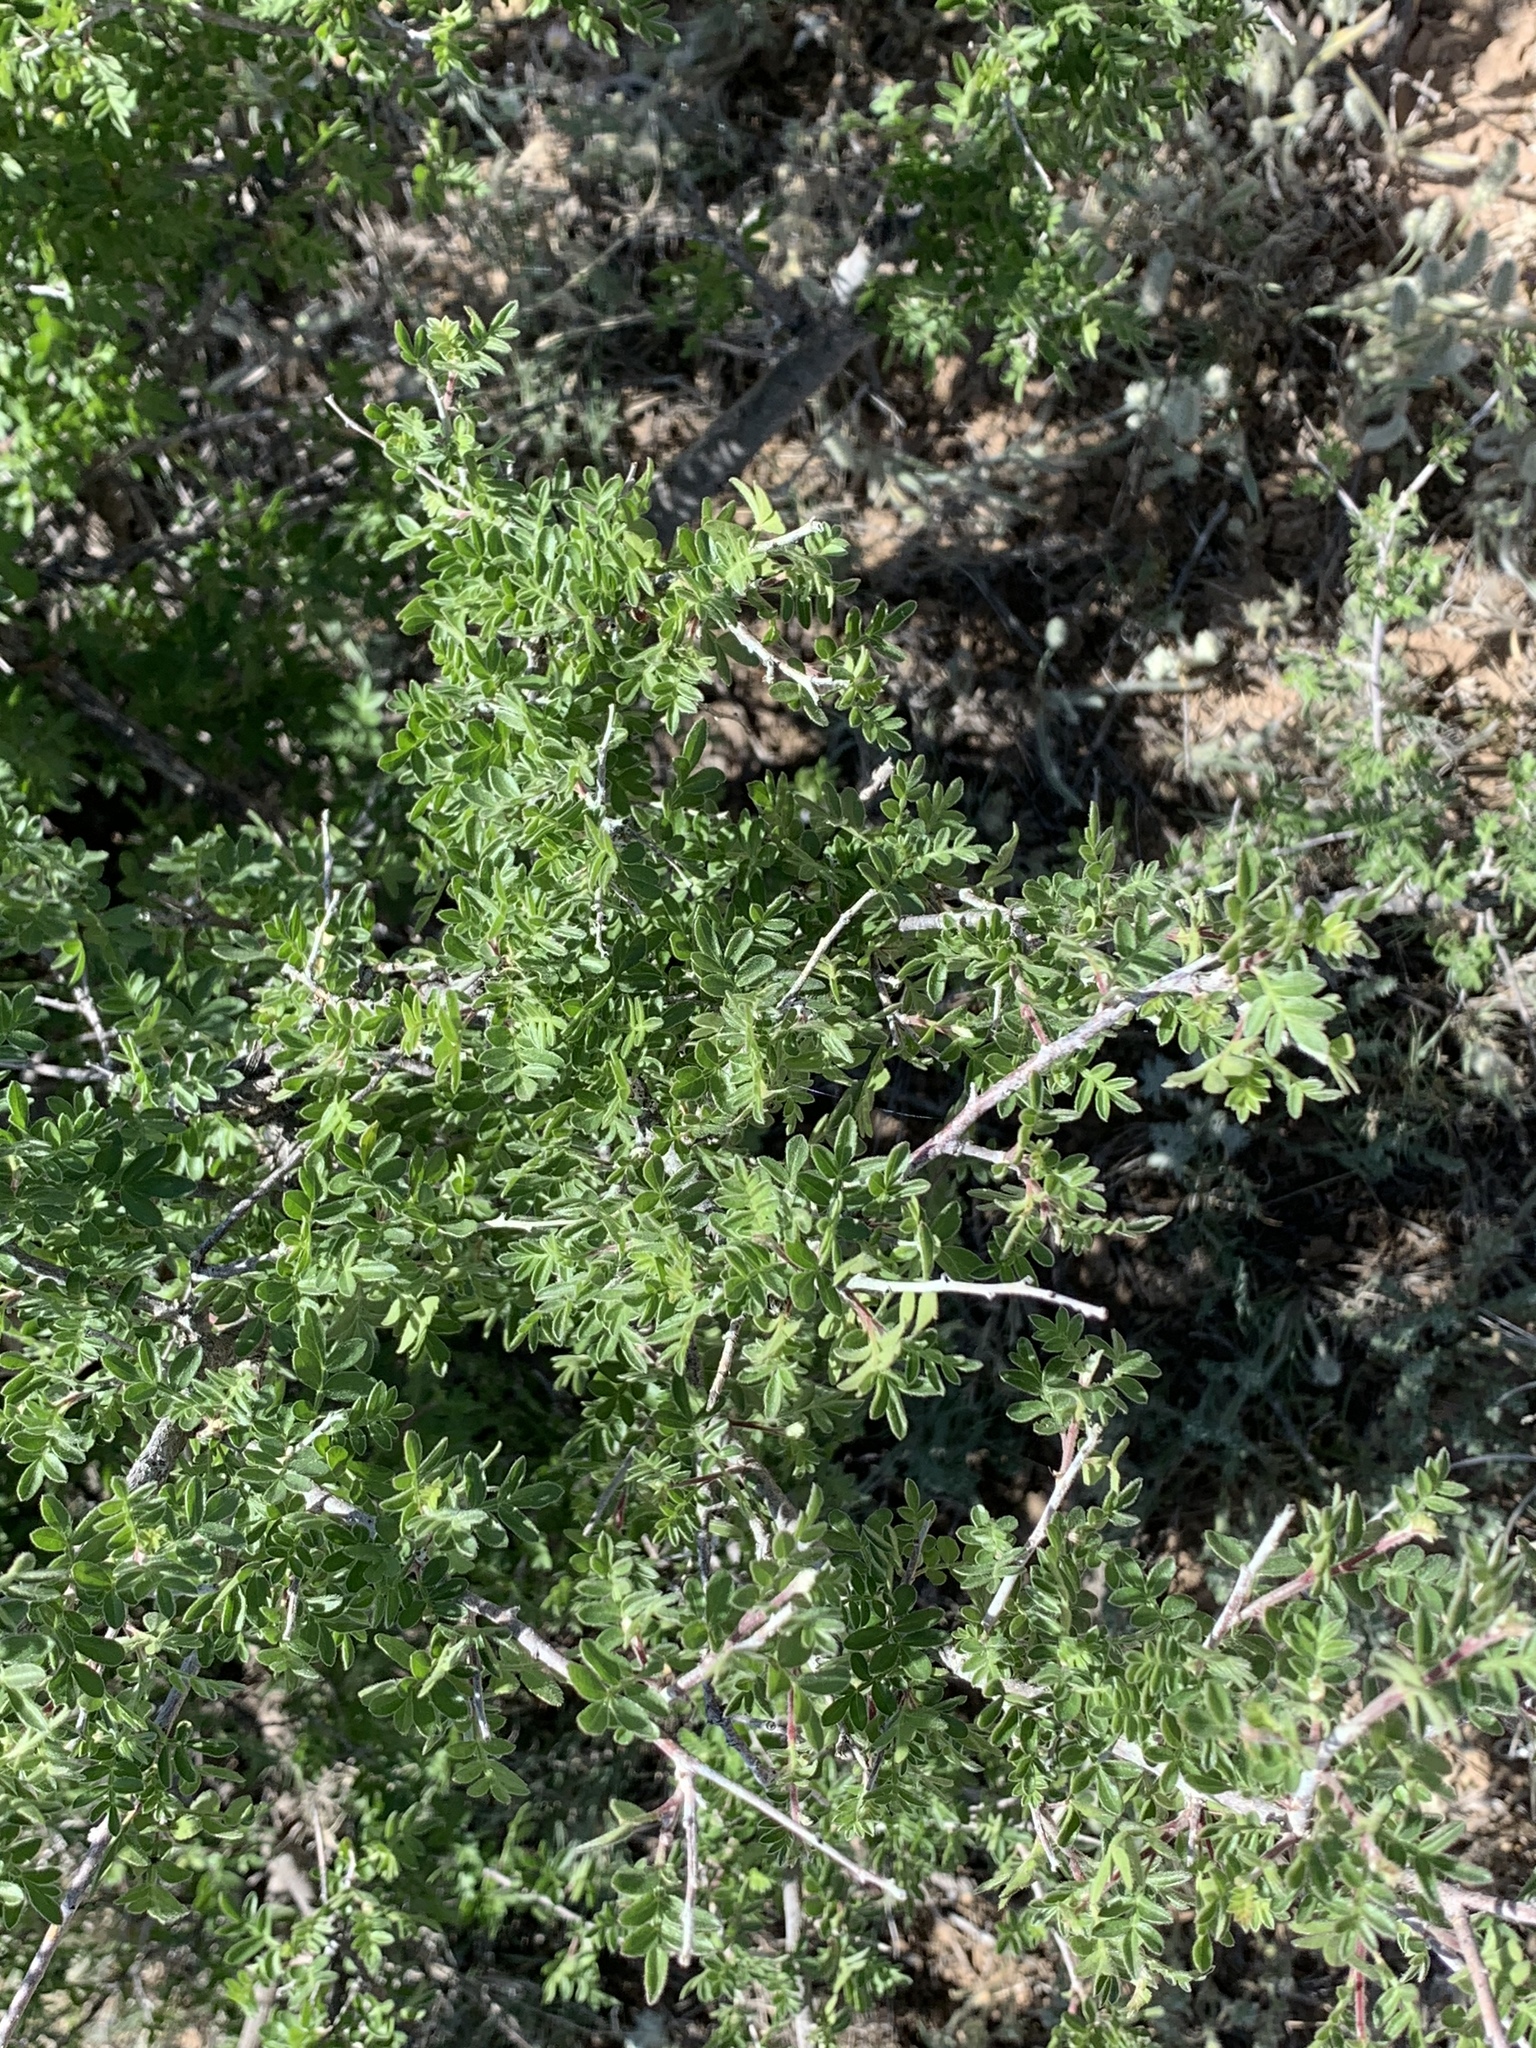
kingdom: Plantae
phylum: Tracheophyta
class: Magnoliopsida
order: Sapindales
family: Anacardiaceae
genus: Rhus
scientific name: Rhus microphylla
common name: Desert sumac
